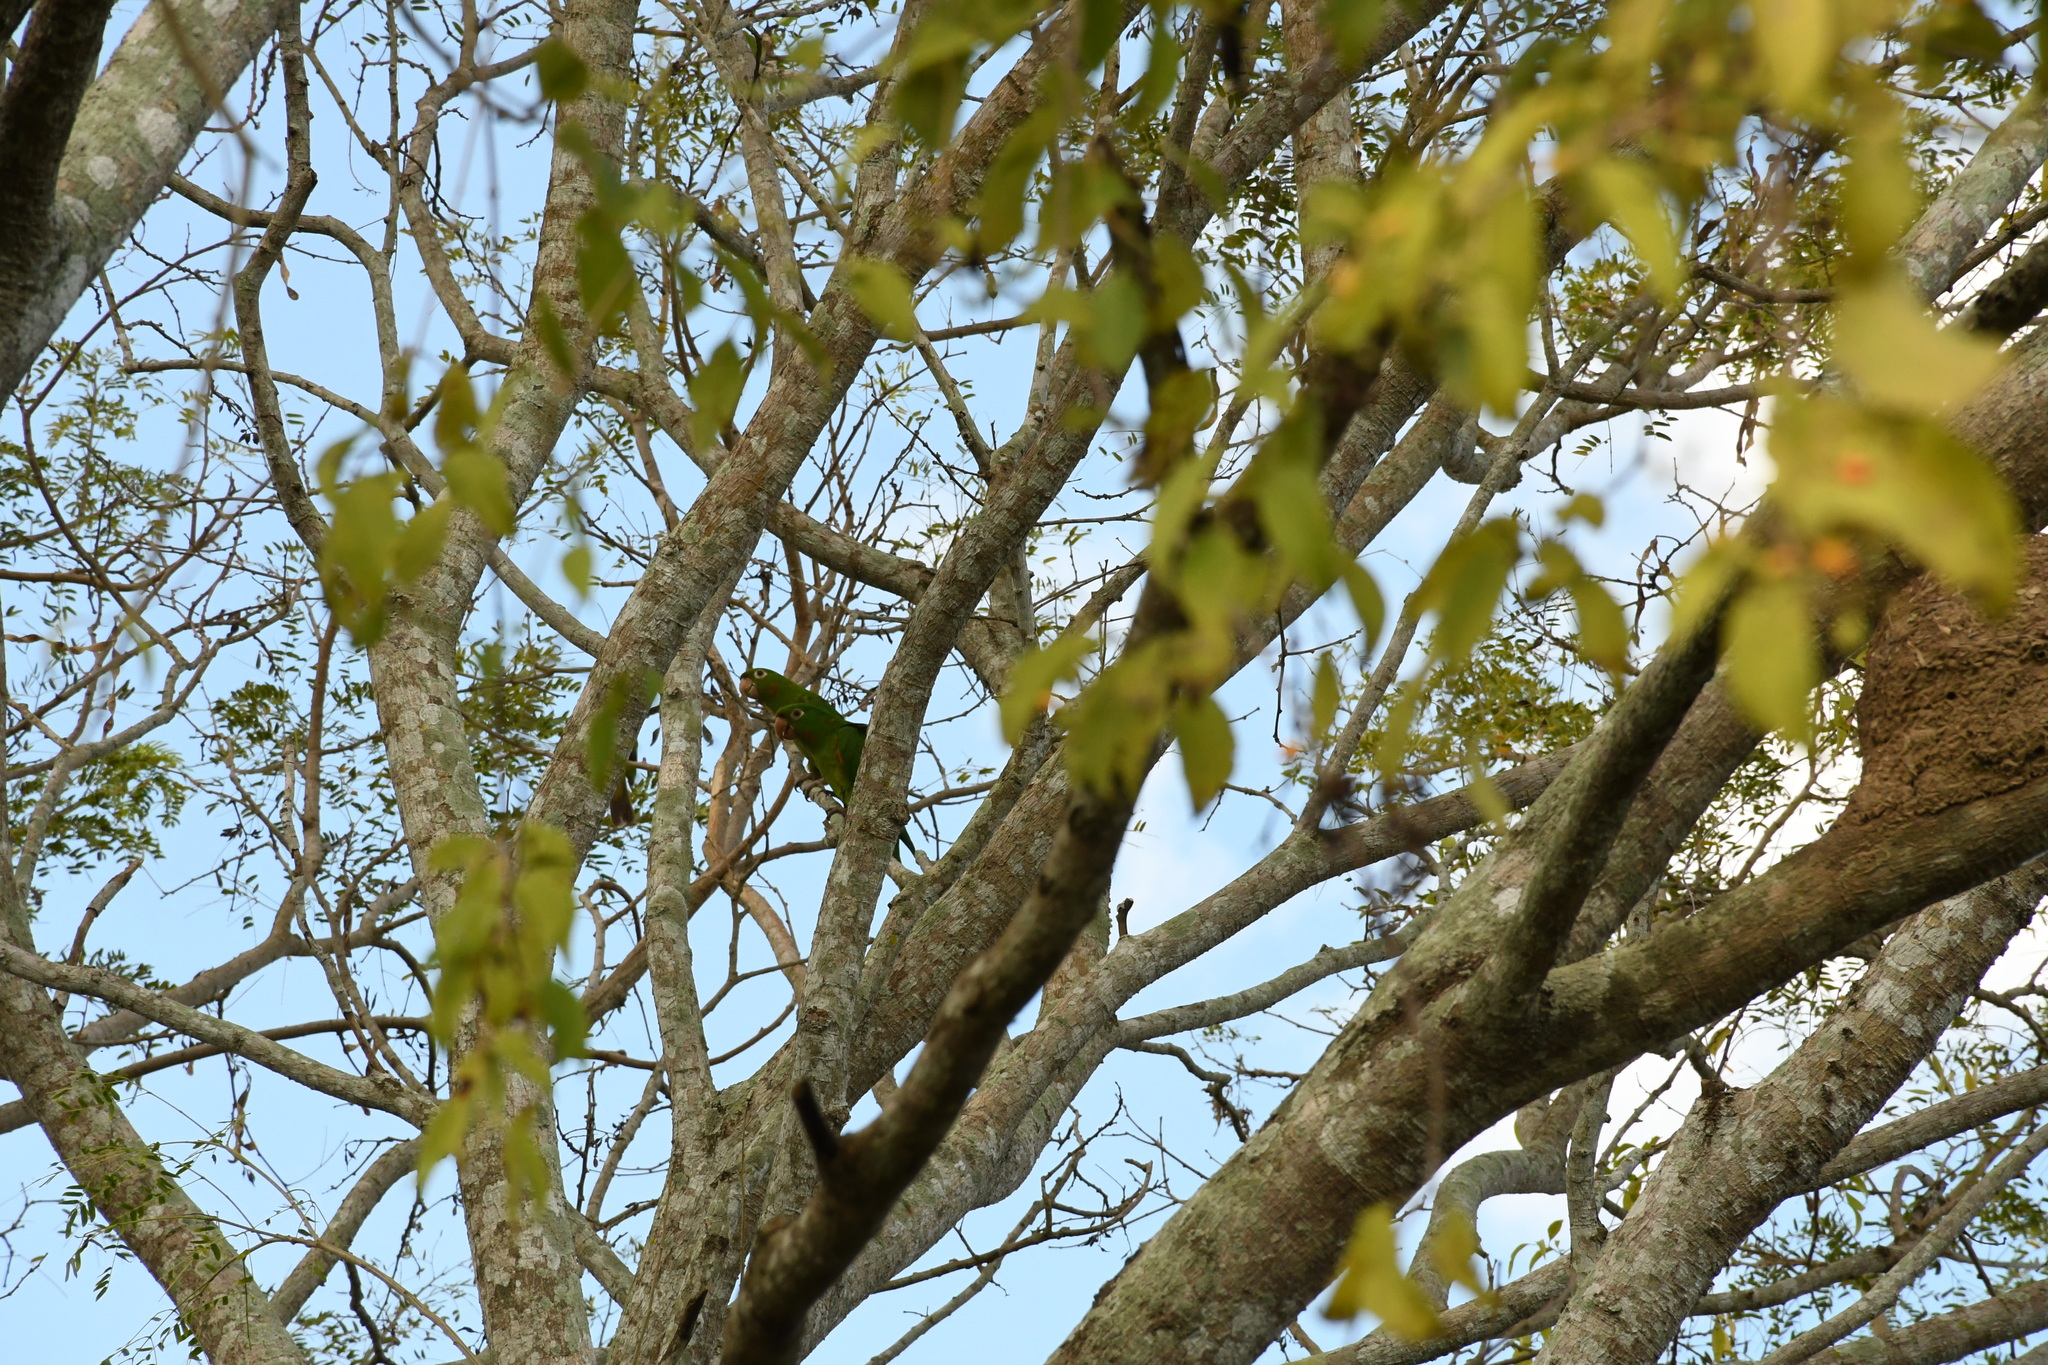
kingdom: Animalia
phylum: Chordata
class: Aves
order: Psittaciformes
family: Psittacidae
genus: Aratinga
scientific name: Aratinga leucophthalma
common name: White-eyed parakeet
